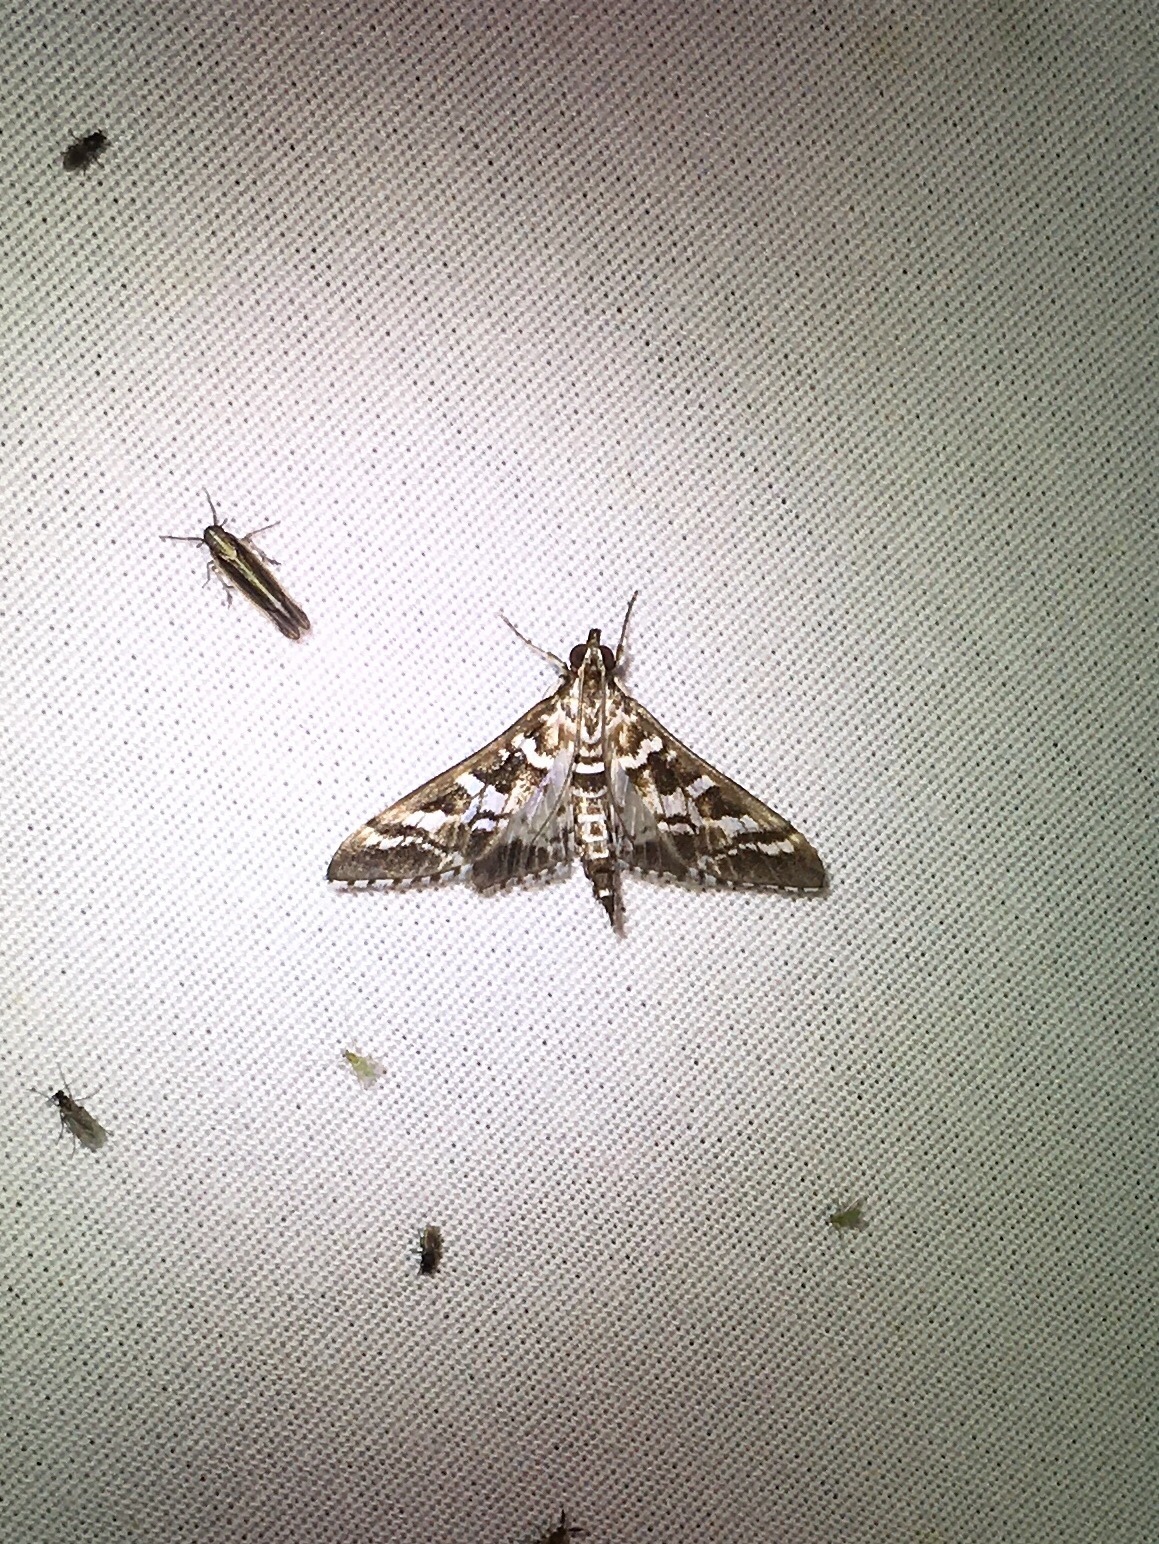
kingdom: Animalia
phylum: Arthropoda
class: Insecta
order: Lepidoptera
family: Crambidae
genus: Epipagis
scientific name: Epipagis forsythae
